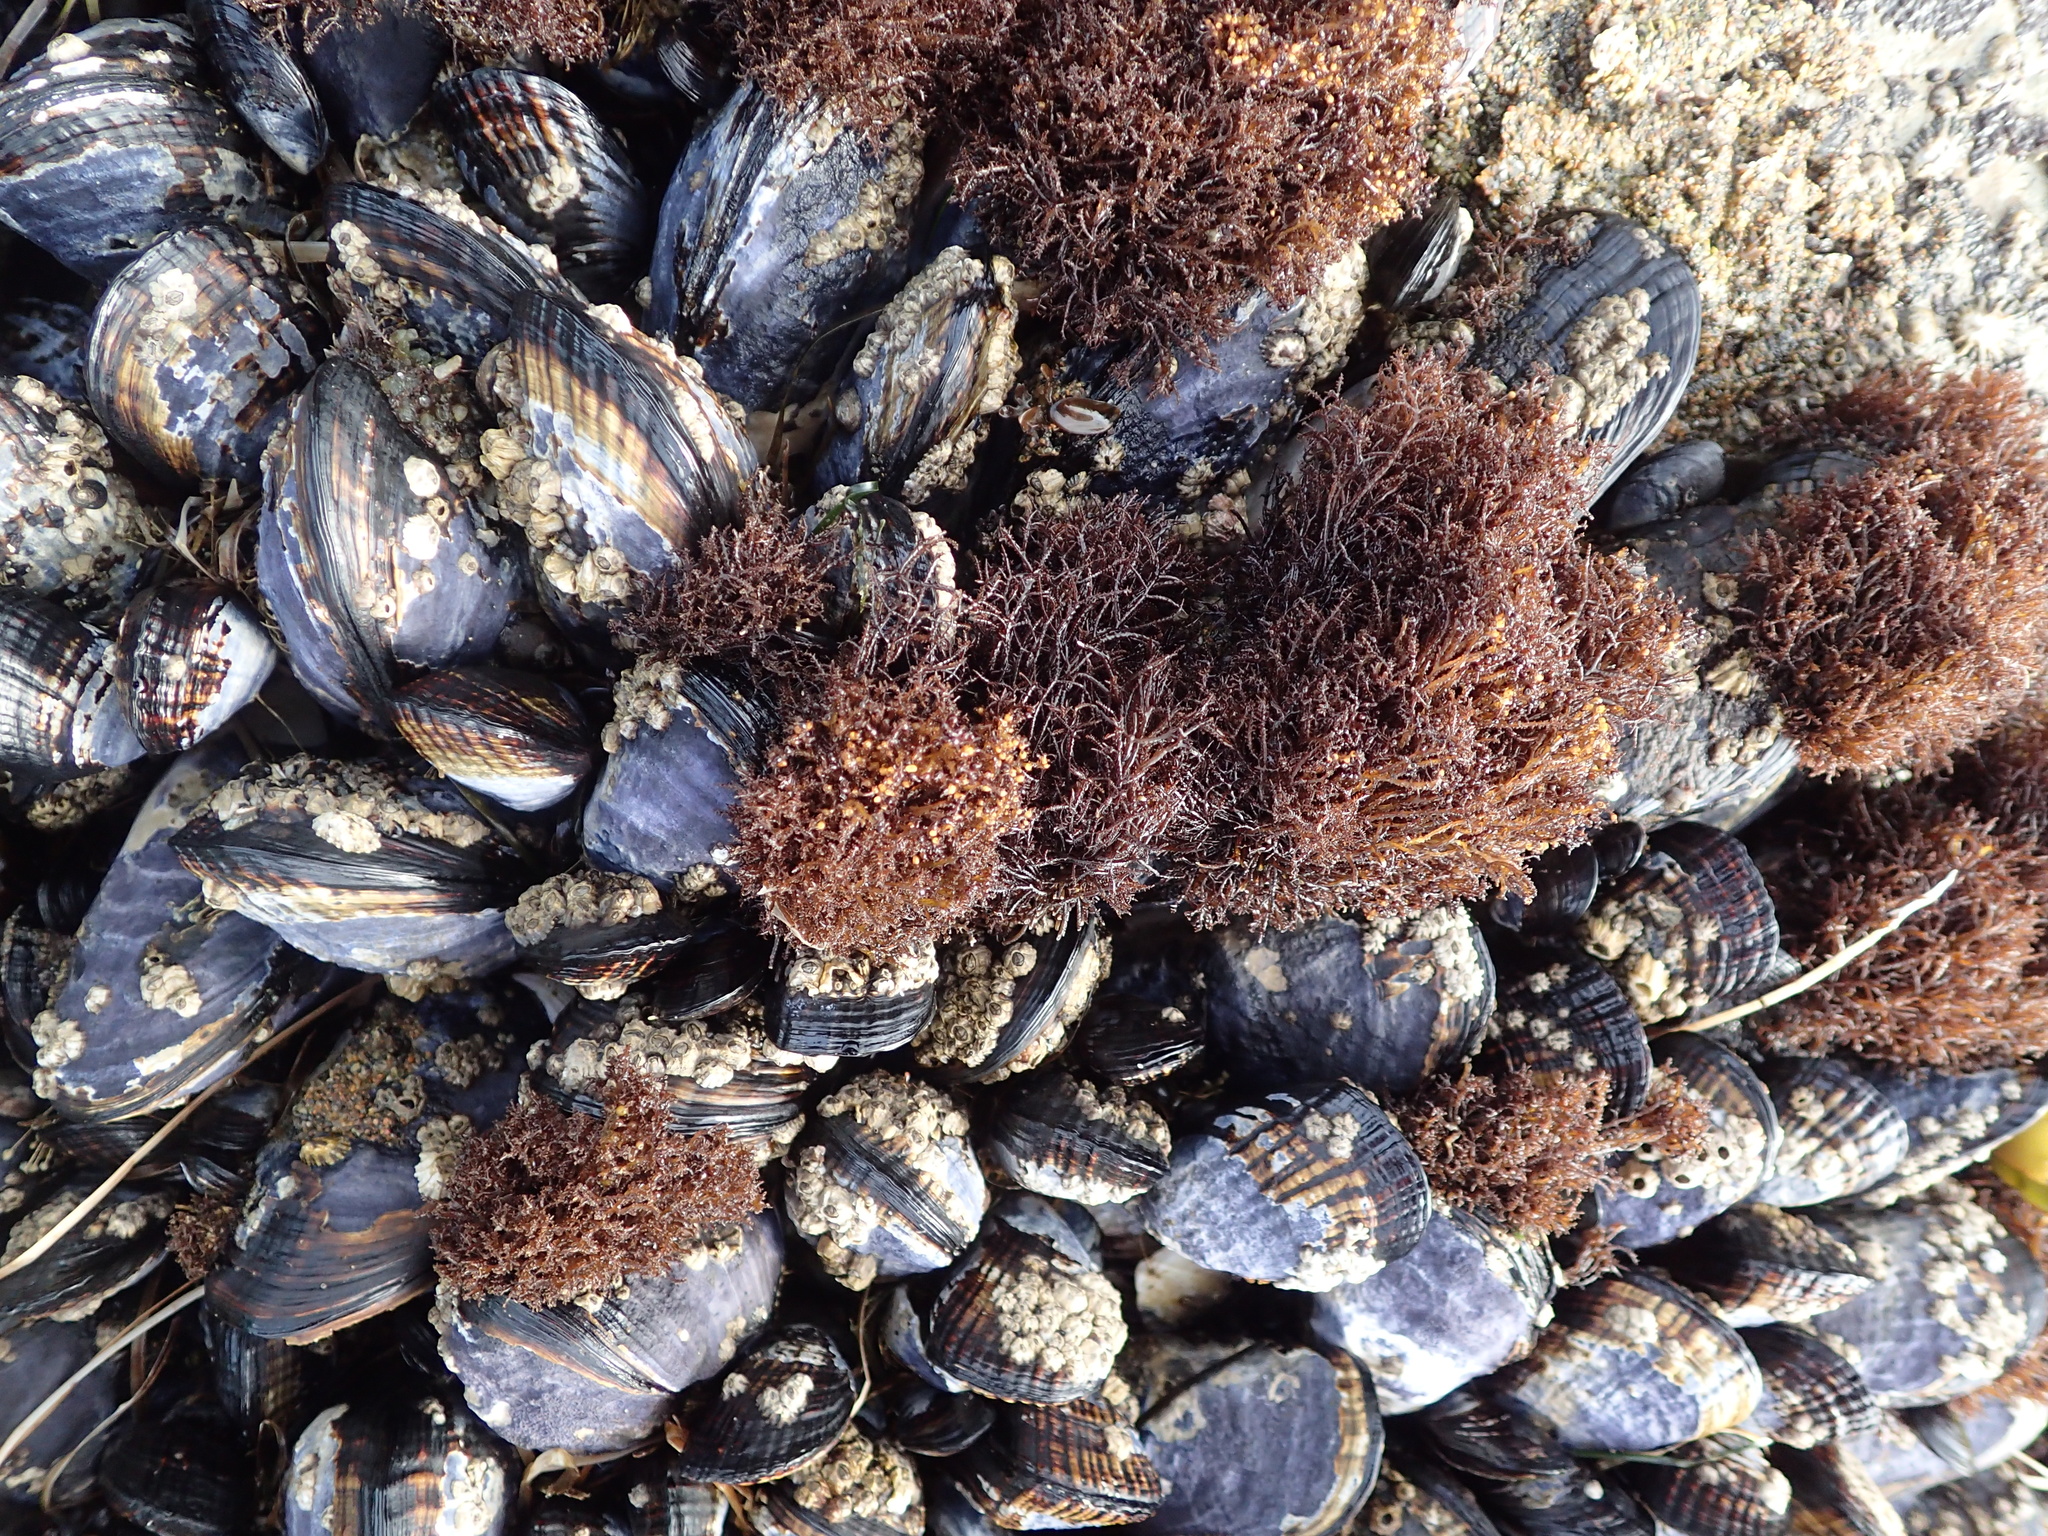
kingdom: Animalia
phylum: Mollusca
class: Bivalvia
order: Mytilida
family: Mytilidae
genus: Mytilus
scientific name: Mytilus californianus
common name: California mussel
